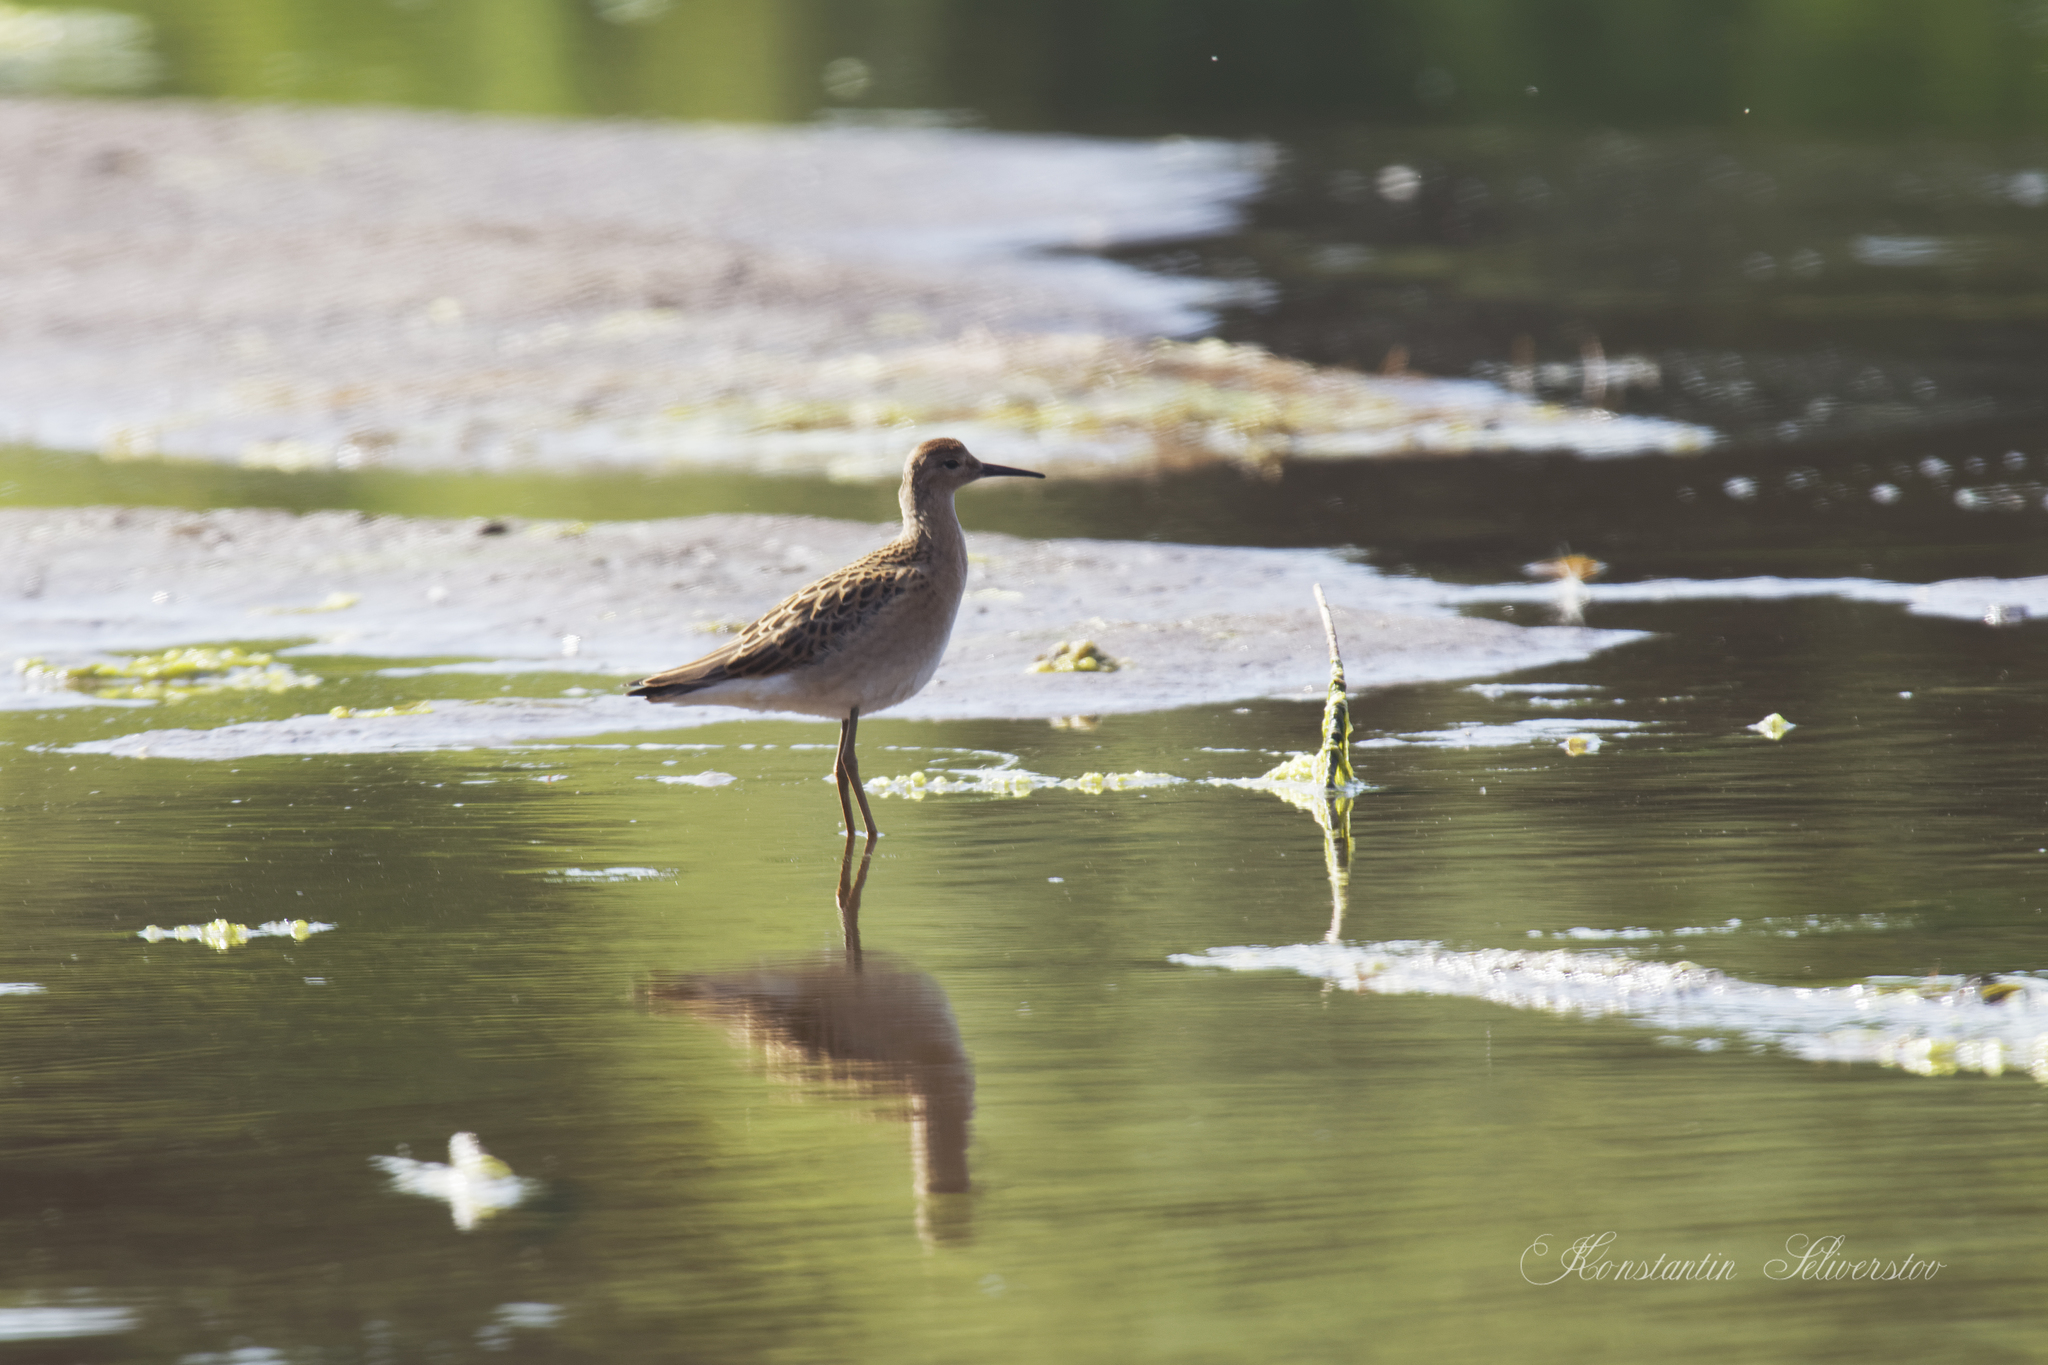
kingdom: Animalia
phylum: Chordata
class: Aves
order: Charadriiformes
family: Scolopacidae
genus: Calidris
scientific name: Calidris pugnax
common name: Ruff
